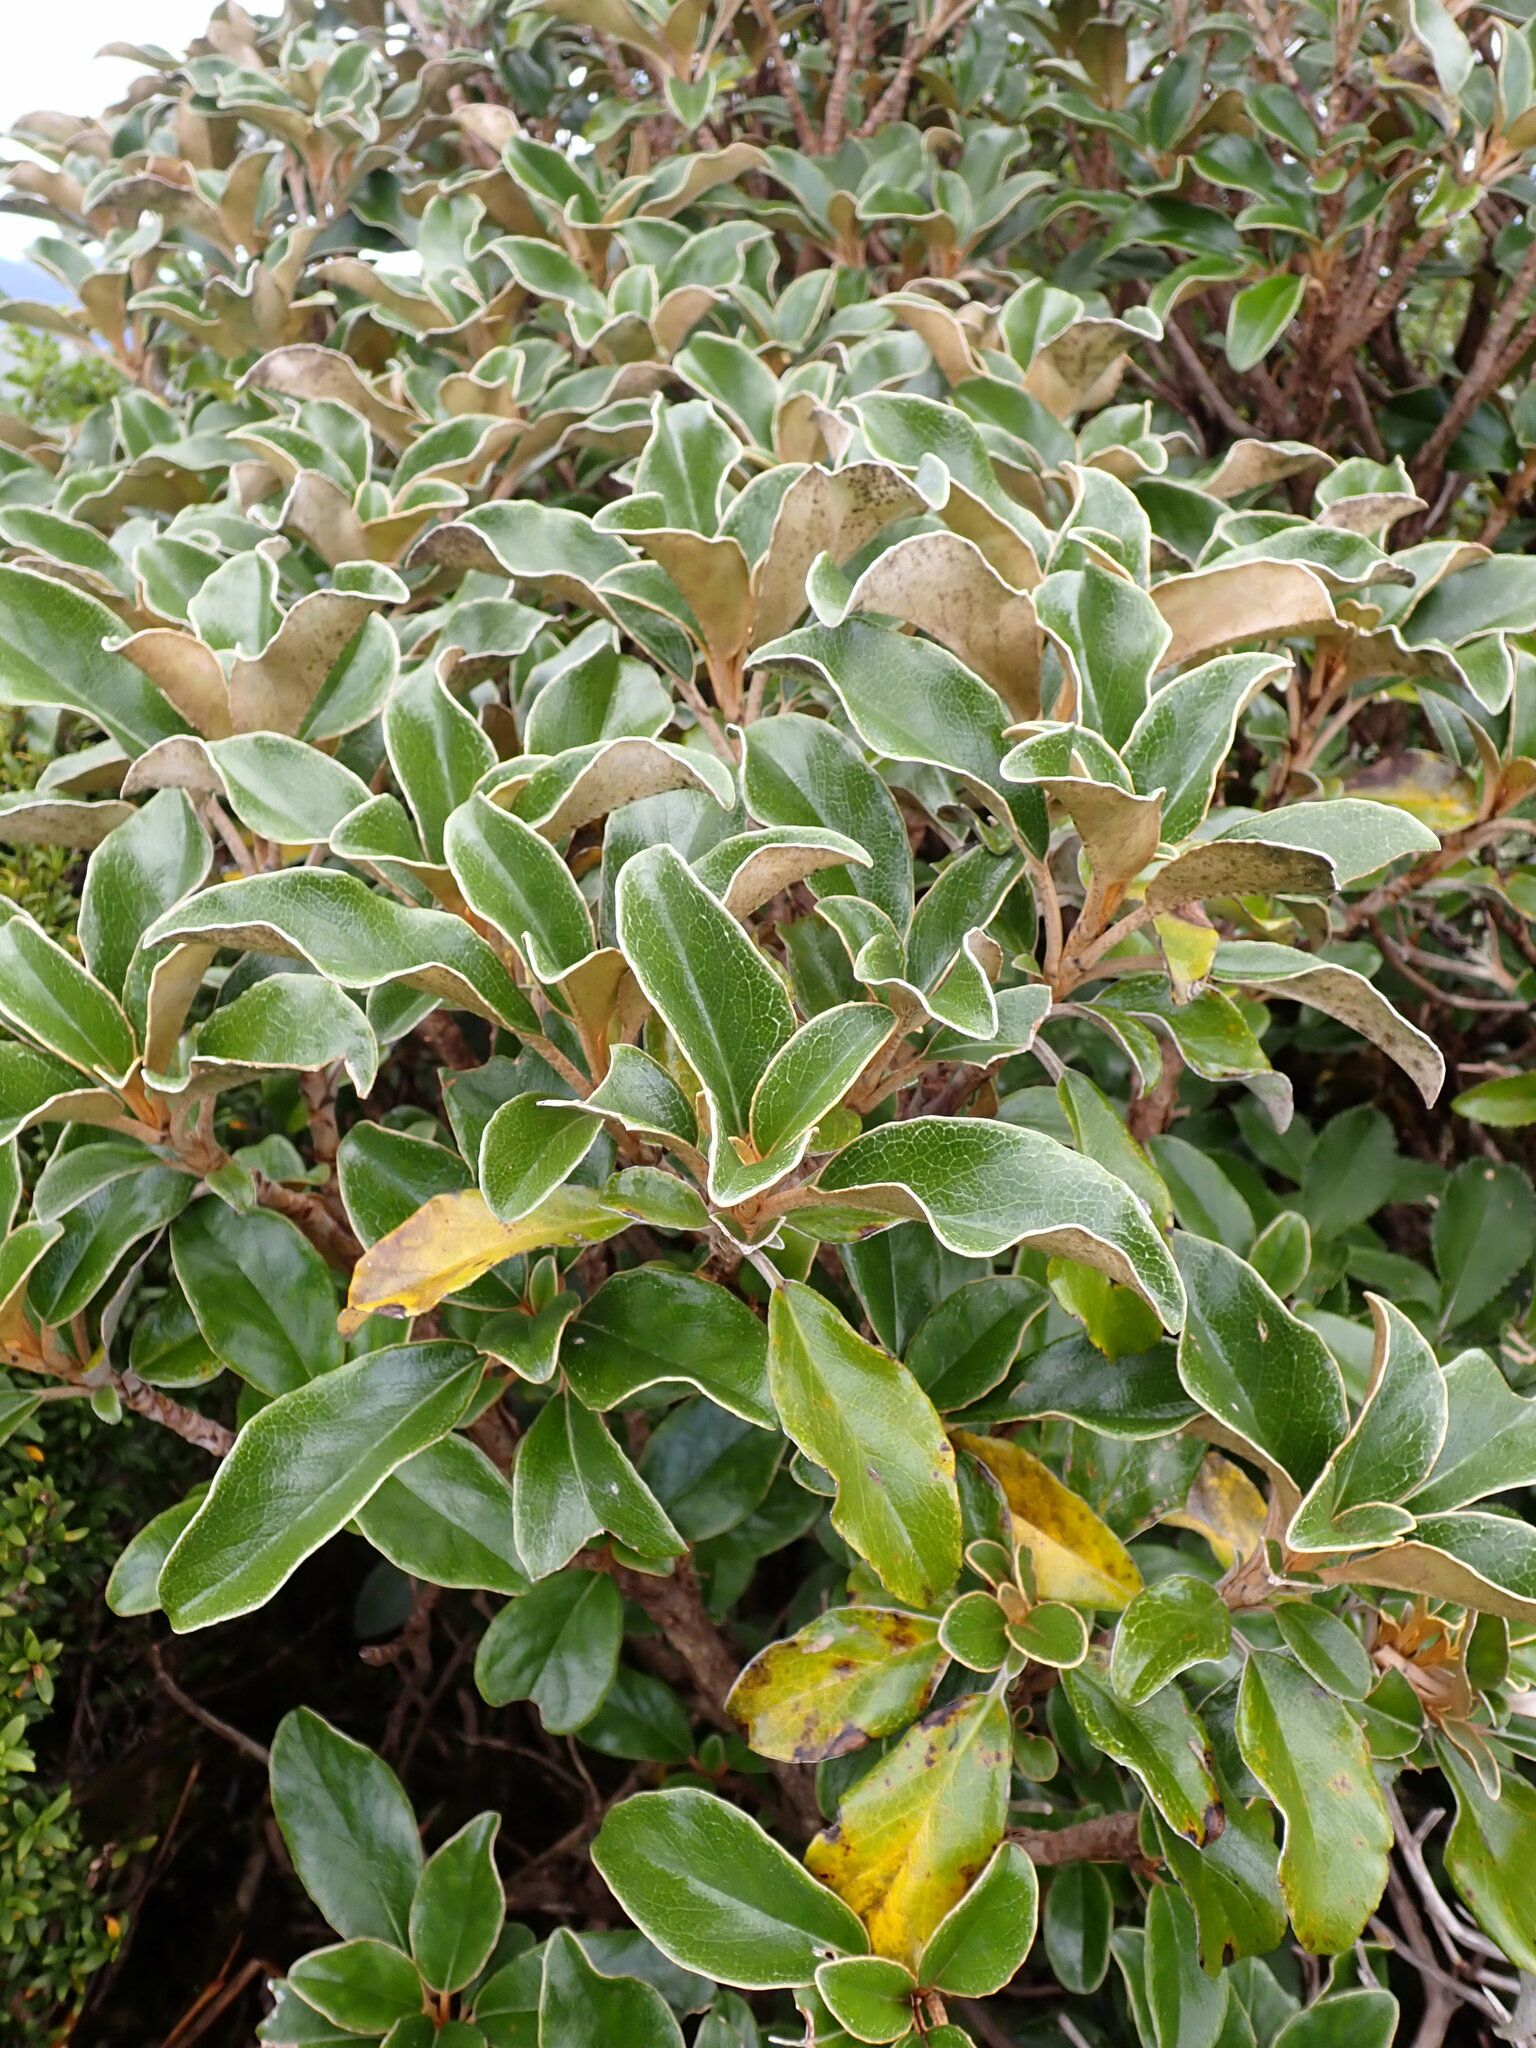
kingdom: Plantae
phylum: Tracheophyta
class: Magnoliopsida
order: Asterales
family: Asteraceae
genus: Brachyglottis
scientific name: Brachyglottis elaeagnifolia
